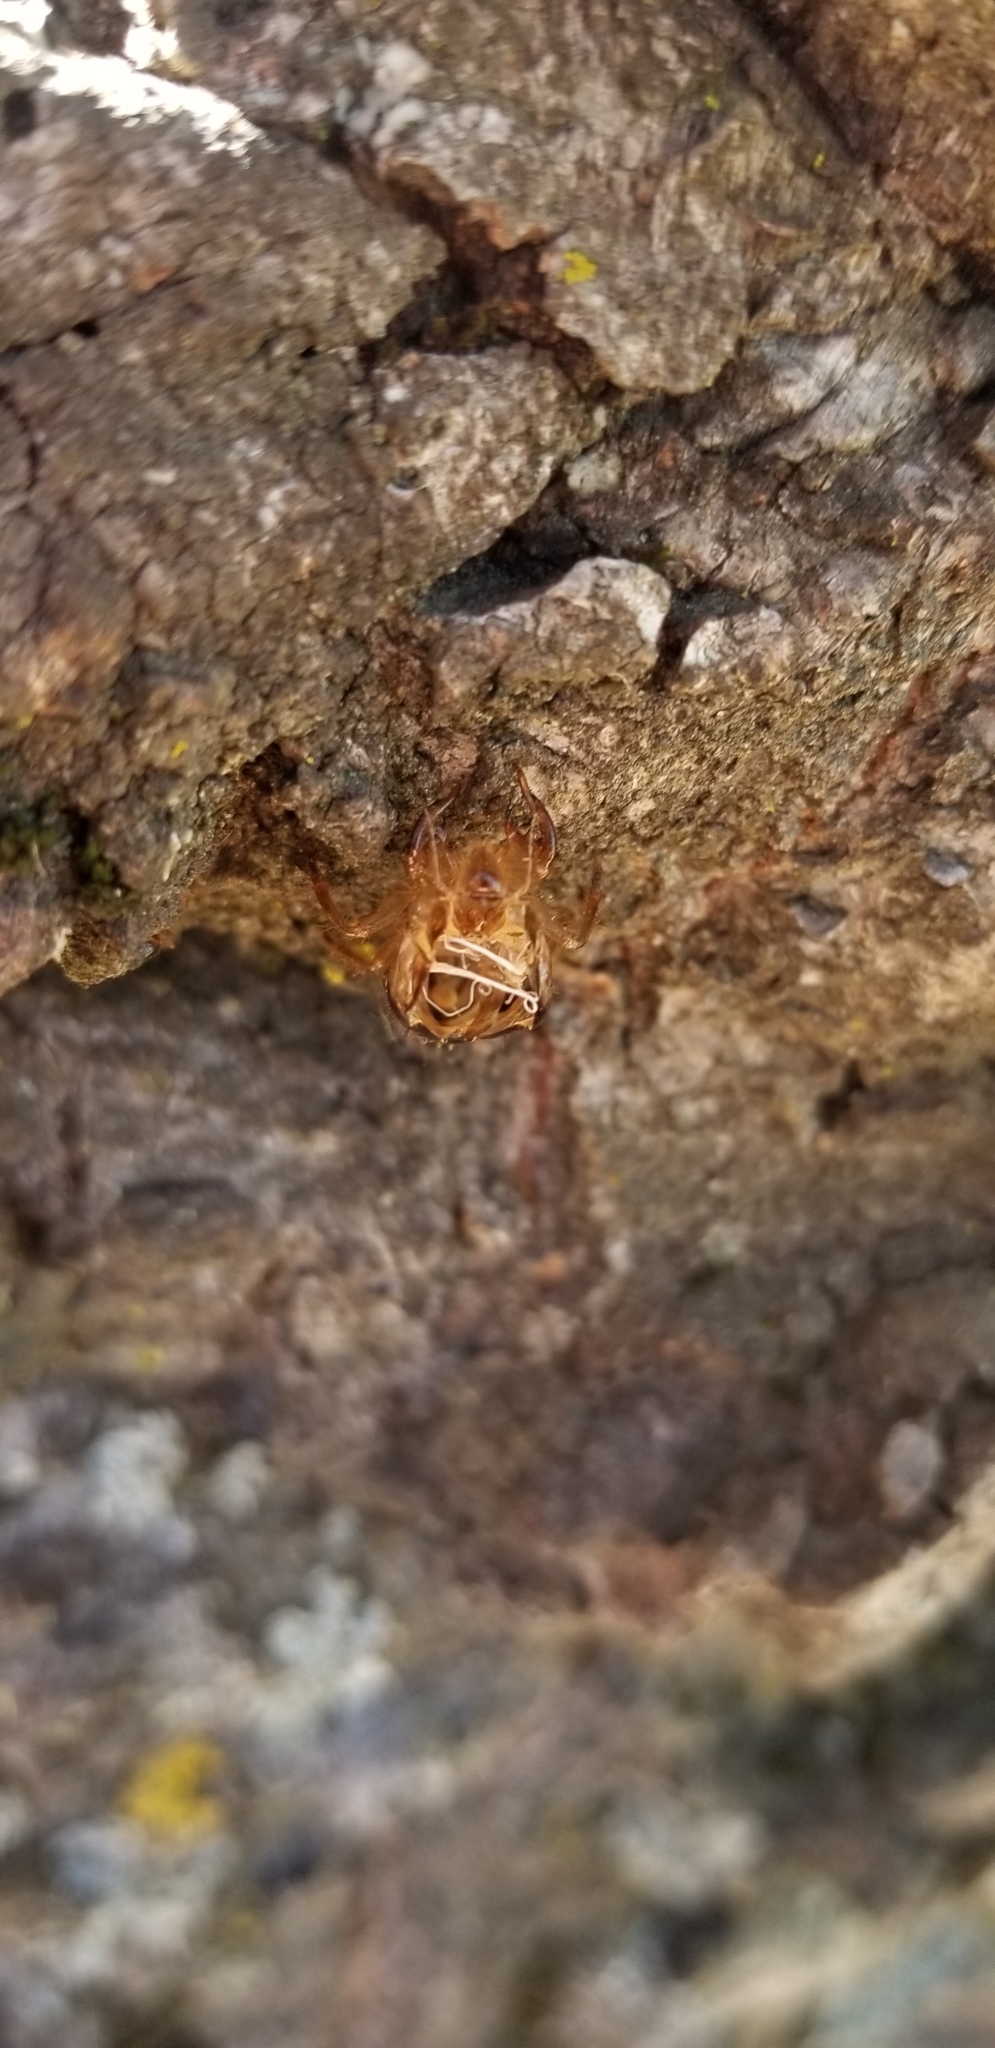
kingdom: Animalia
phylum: Arthropoda
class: Insecta
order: Hemiptera
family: Cicadidae
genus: Platypedia
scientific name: Platypedia
